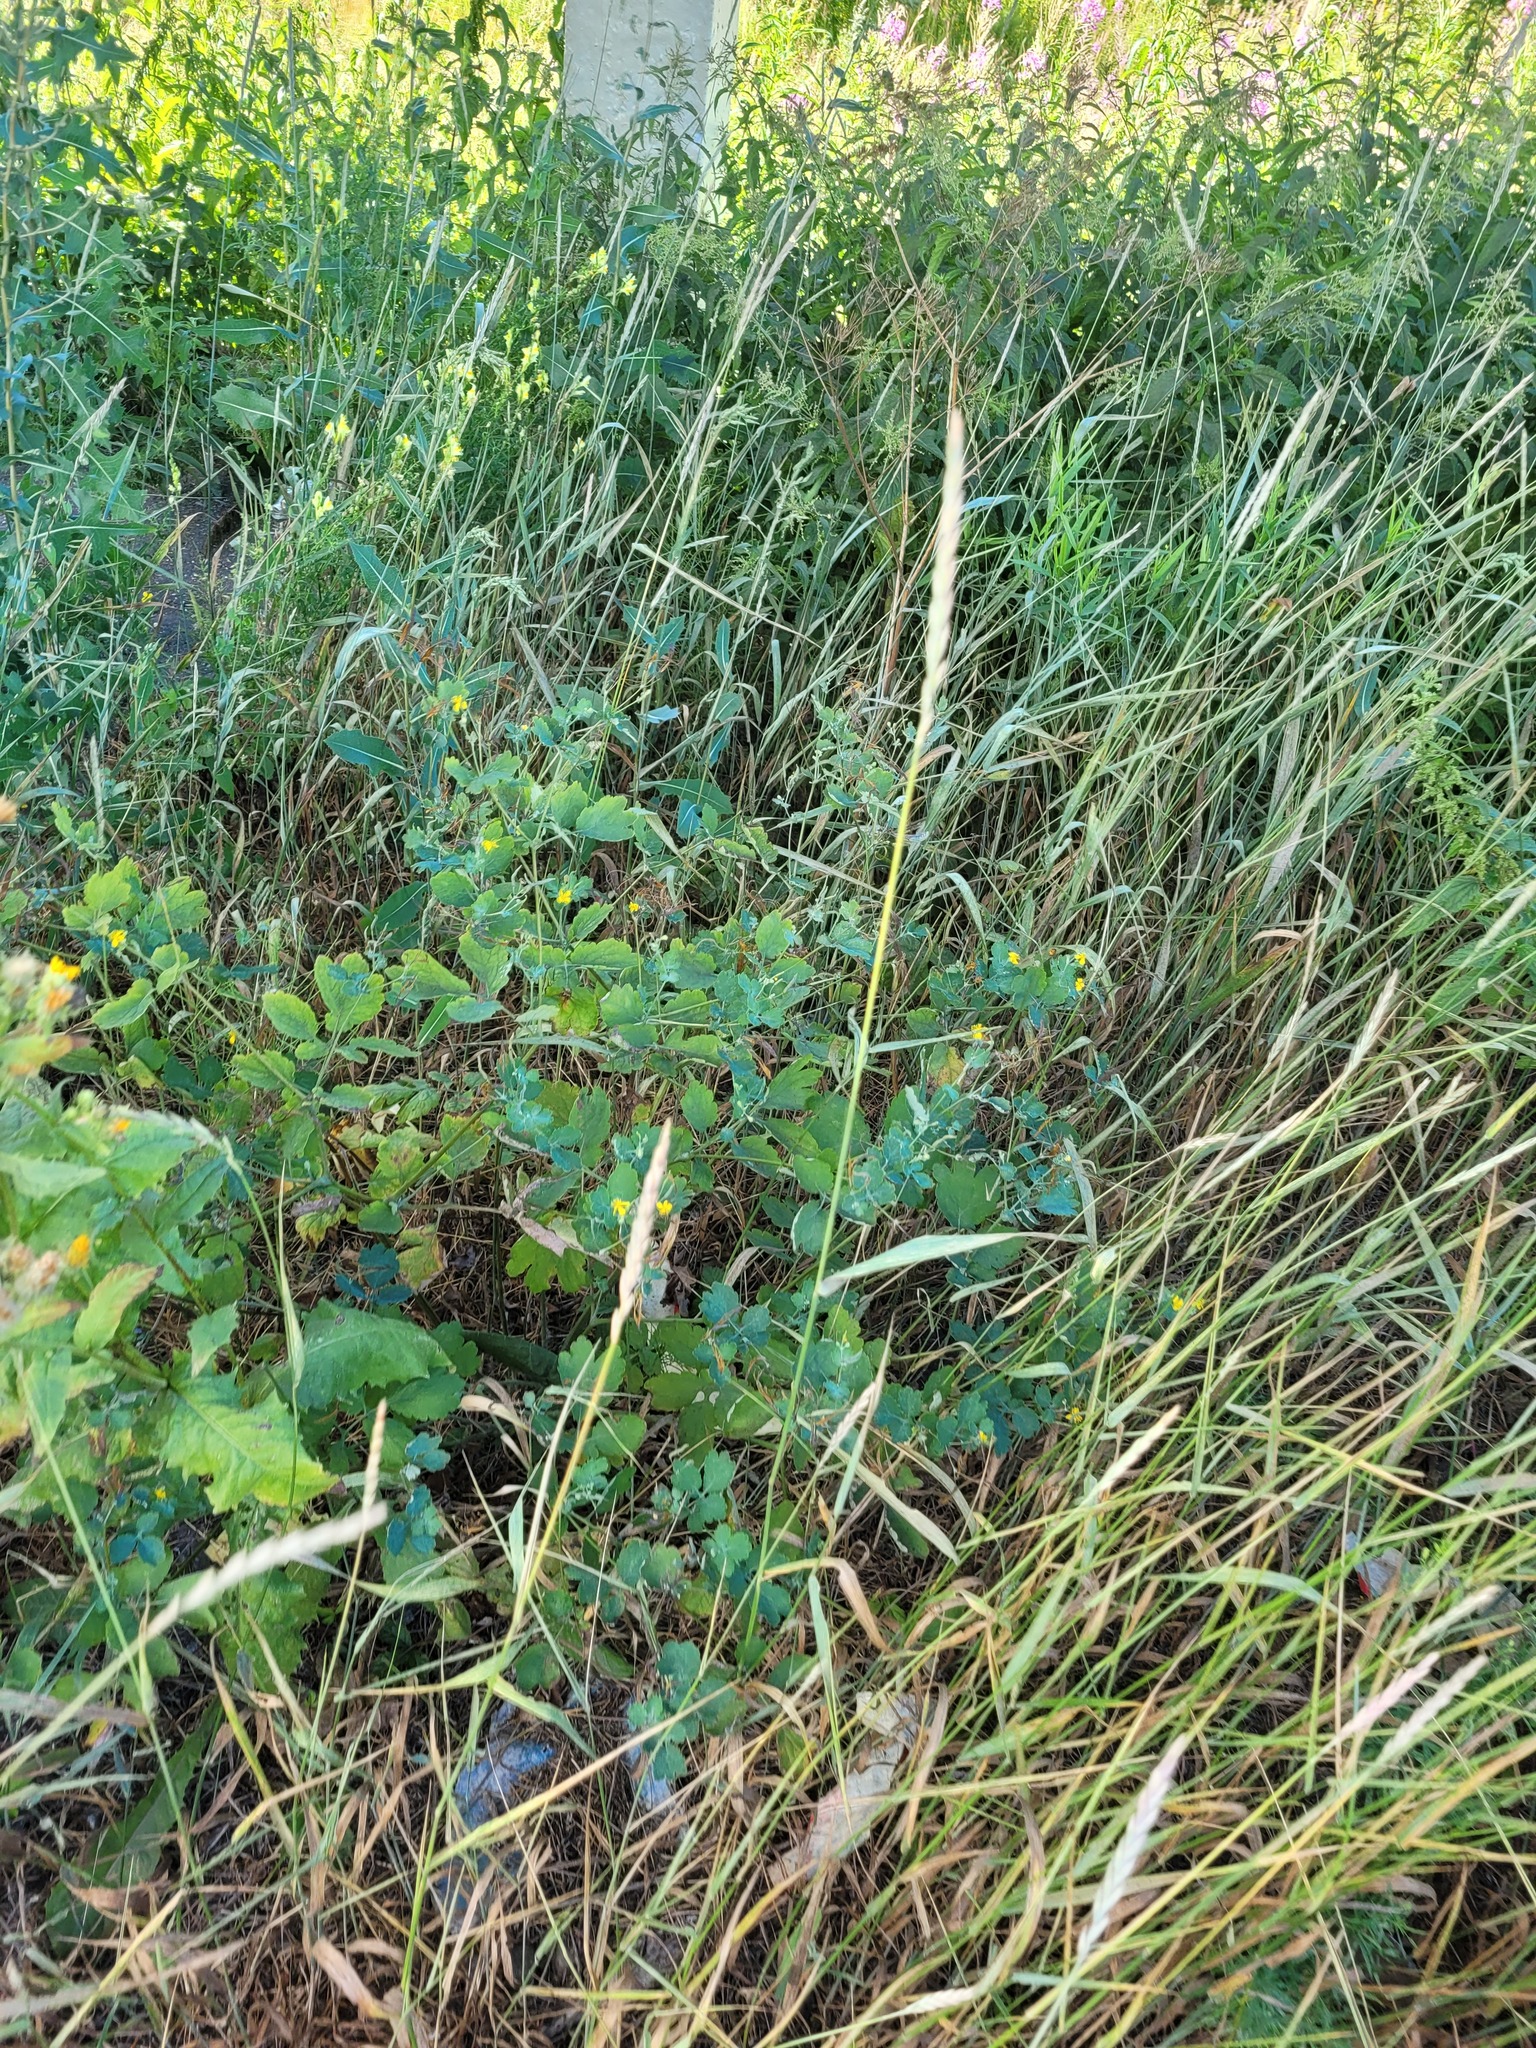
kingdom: Plantae
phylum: Tracheophyta
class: Magnoliopsida
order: Ranunculales
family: Papaveraceae
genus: Chelidonium
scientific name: Chelidonium majus
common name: Greater celandine
